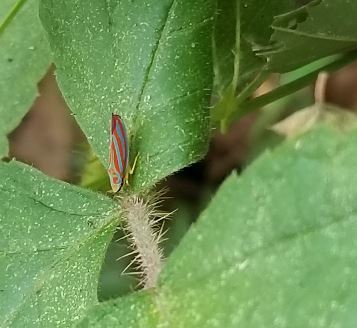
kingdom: Animalia
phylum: Arthropoda
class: Insecta
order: Hemiptera
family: Cicadellidae
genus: Graphocephala
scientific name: Graphocephala coccinea
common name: Candy-striped leafhopper
